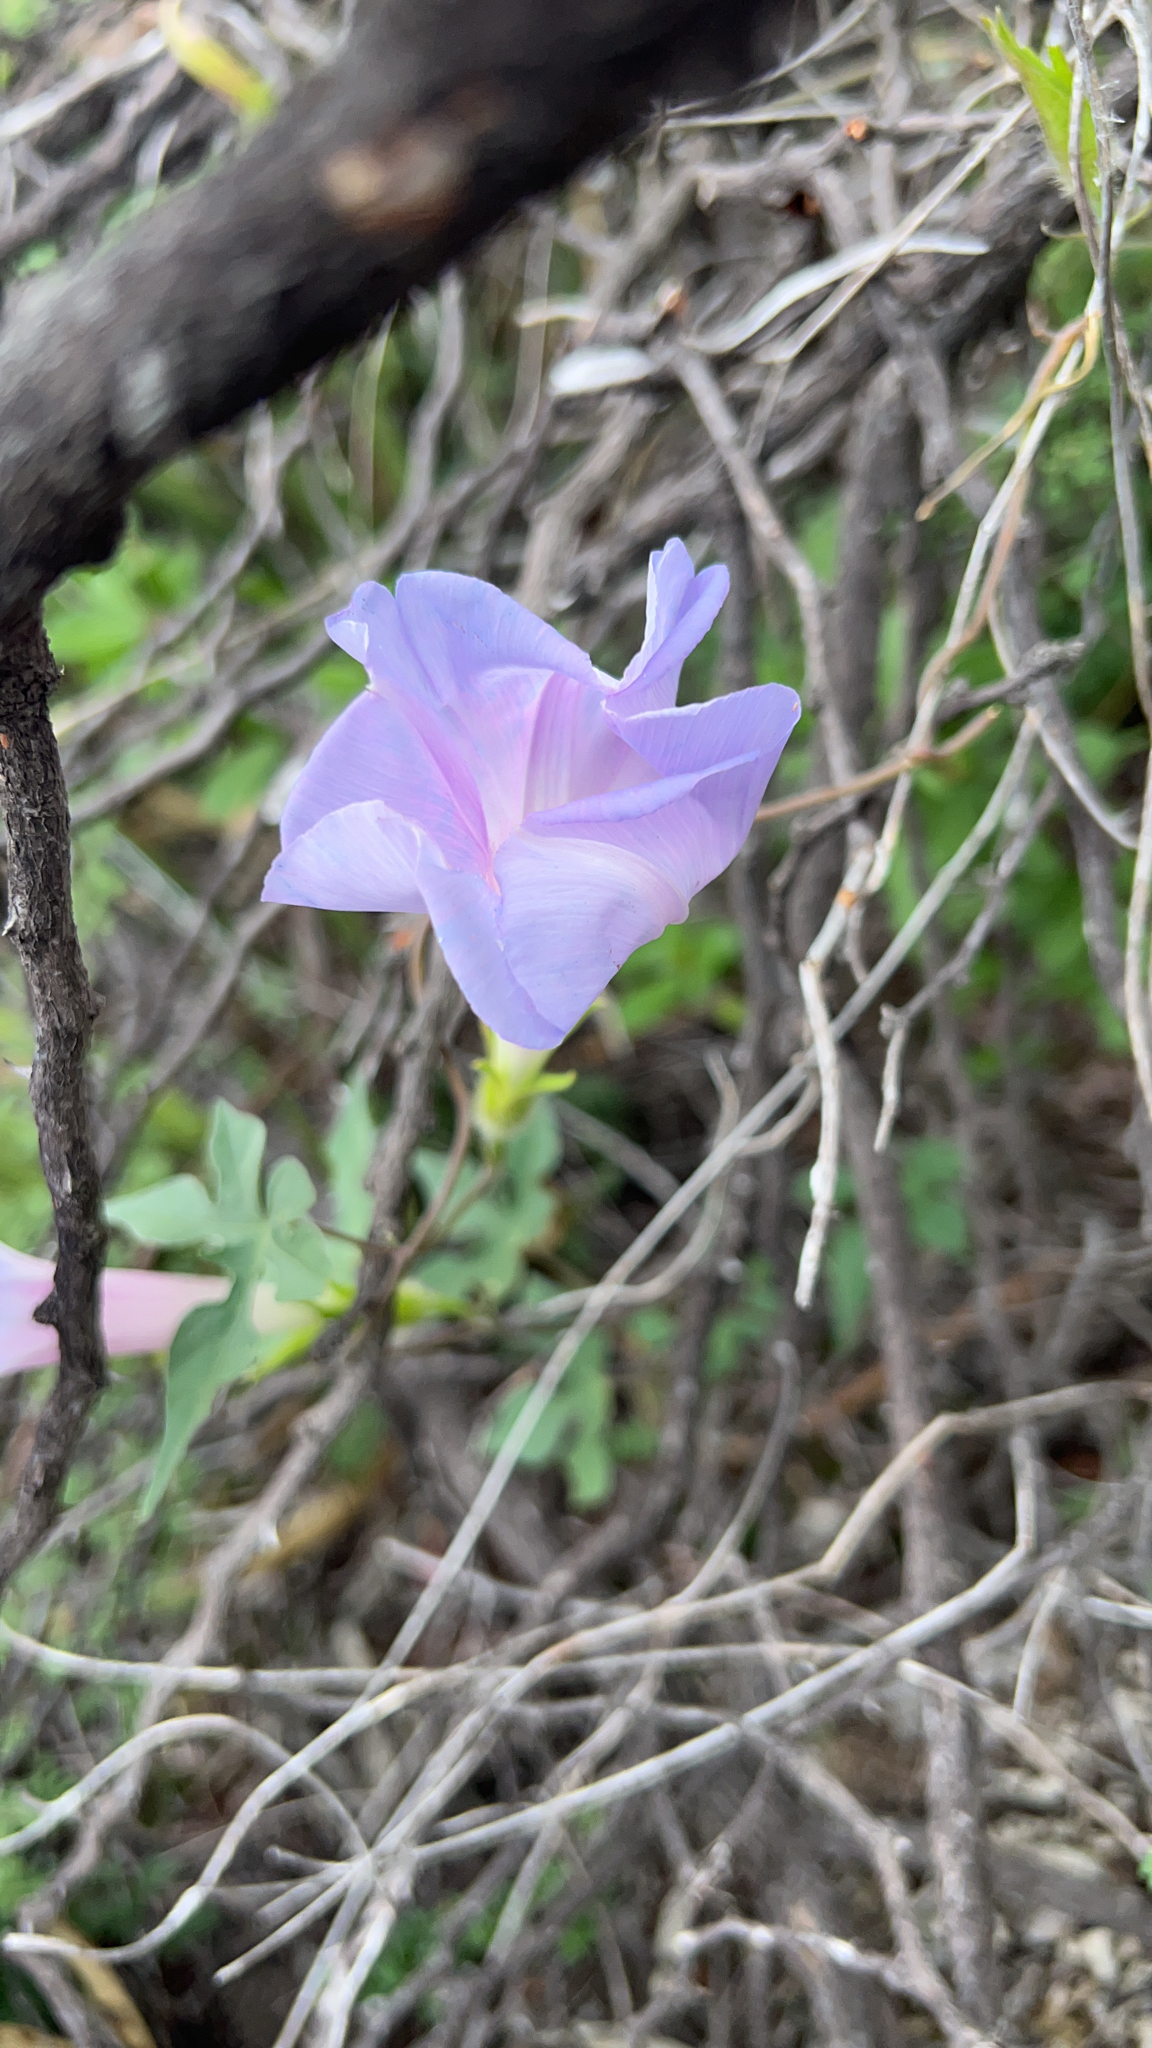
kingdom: Plantae
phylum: Tracheophyta
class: Magnoliopsida
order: Solanales
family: Convolvulaceae
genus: Ipomoea
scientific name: Ipomoea indica
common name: Blue dawnflower
